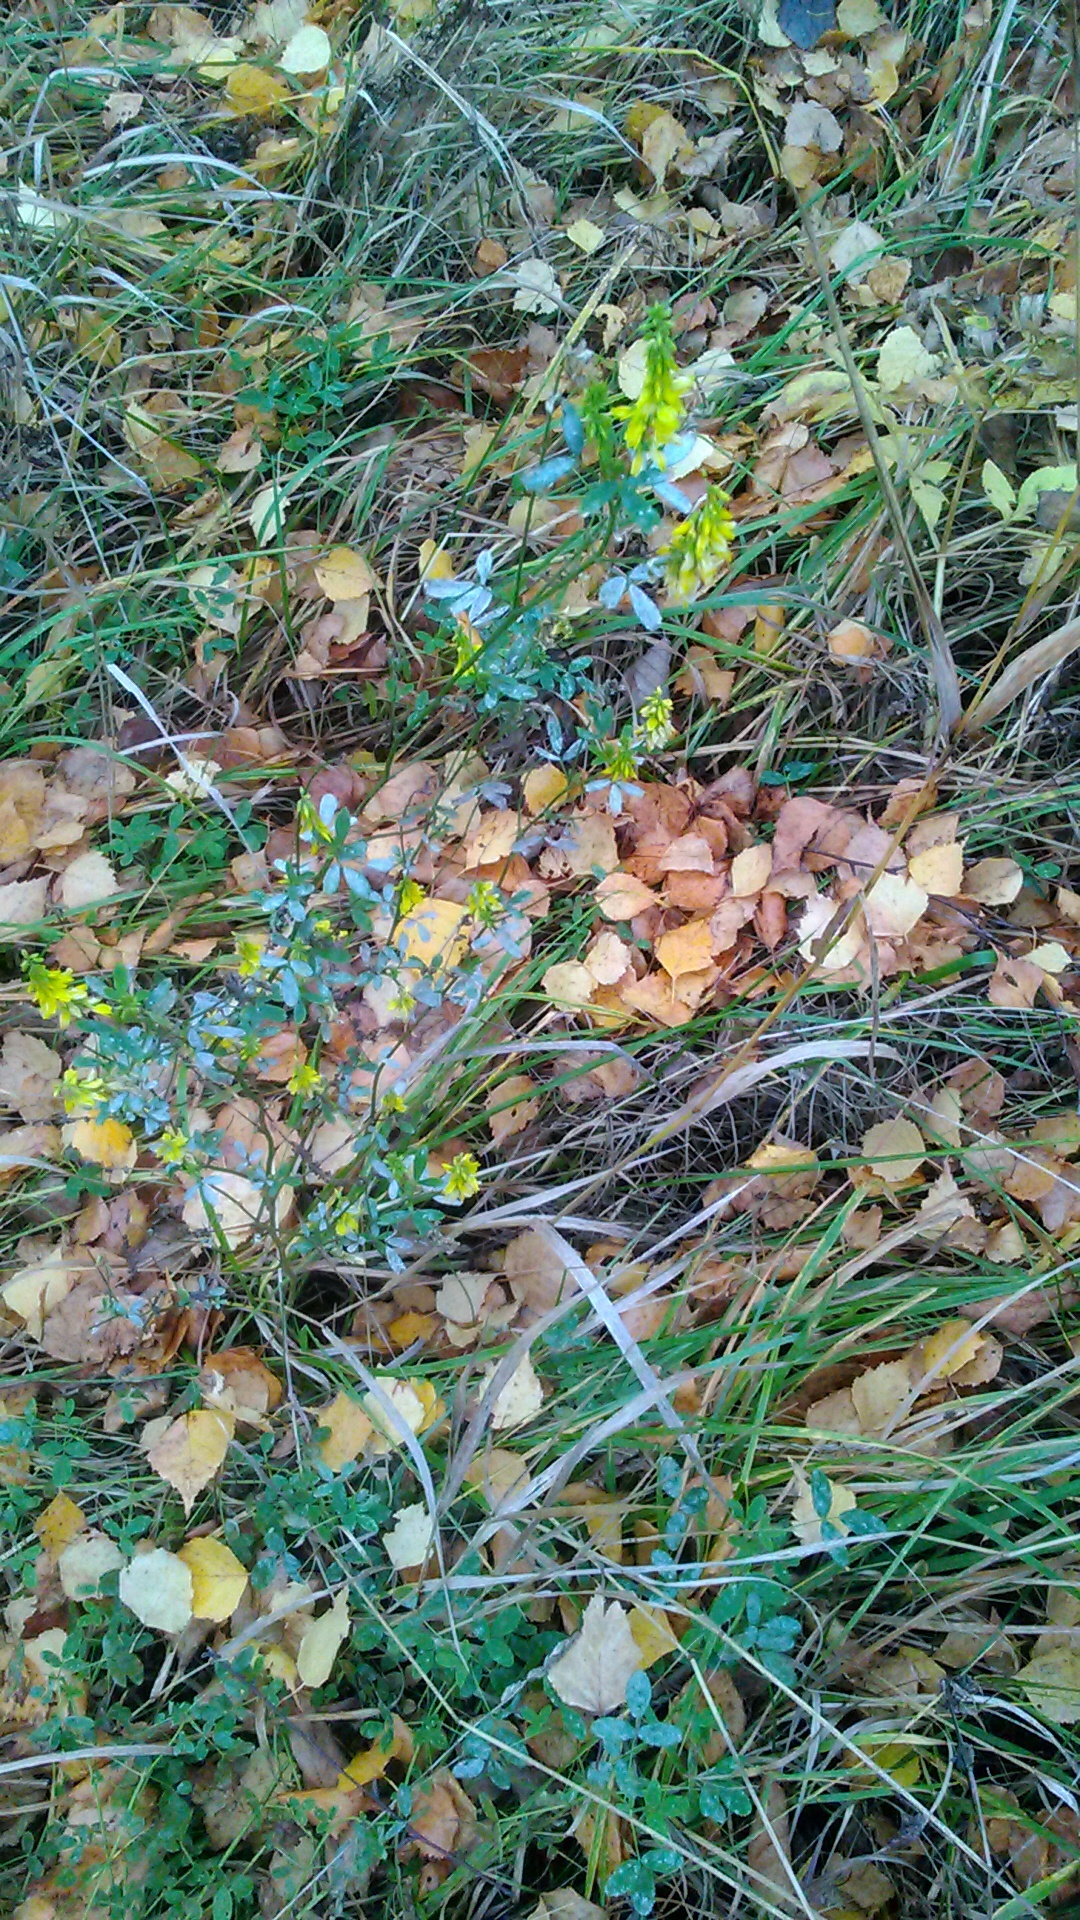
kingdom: Plantae
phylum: Tracheophyta
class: Magnoliopsida
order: Fabales
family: Fabaceae
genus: Melilotus
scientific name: Melilotus officinalis
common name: Sweetclover
